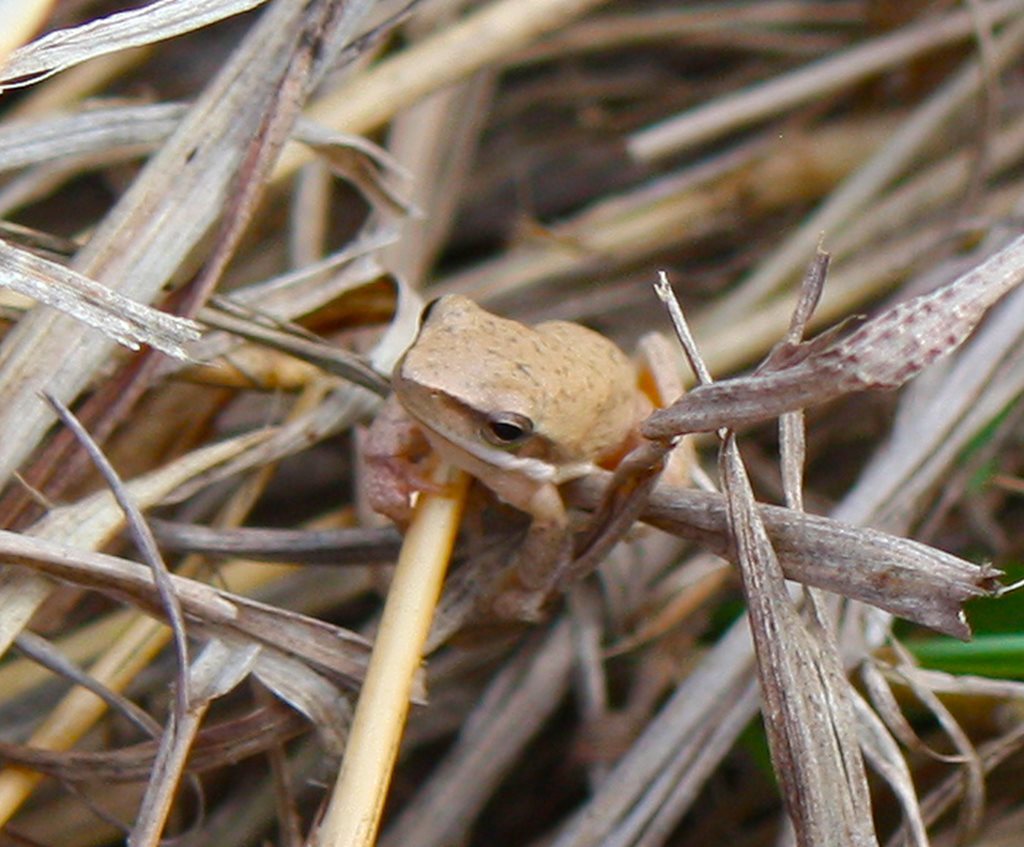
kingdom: Animalia
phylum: Chordata
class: Amphibia
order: Anura
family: Pelodryadidae
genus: Litoria
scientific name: Litoria fallax
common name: Eastern dwarf treefrog
